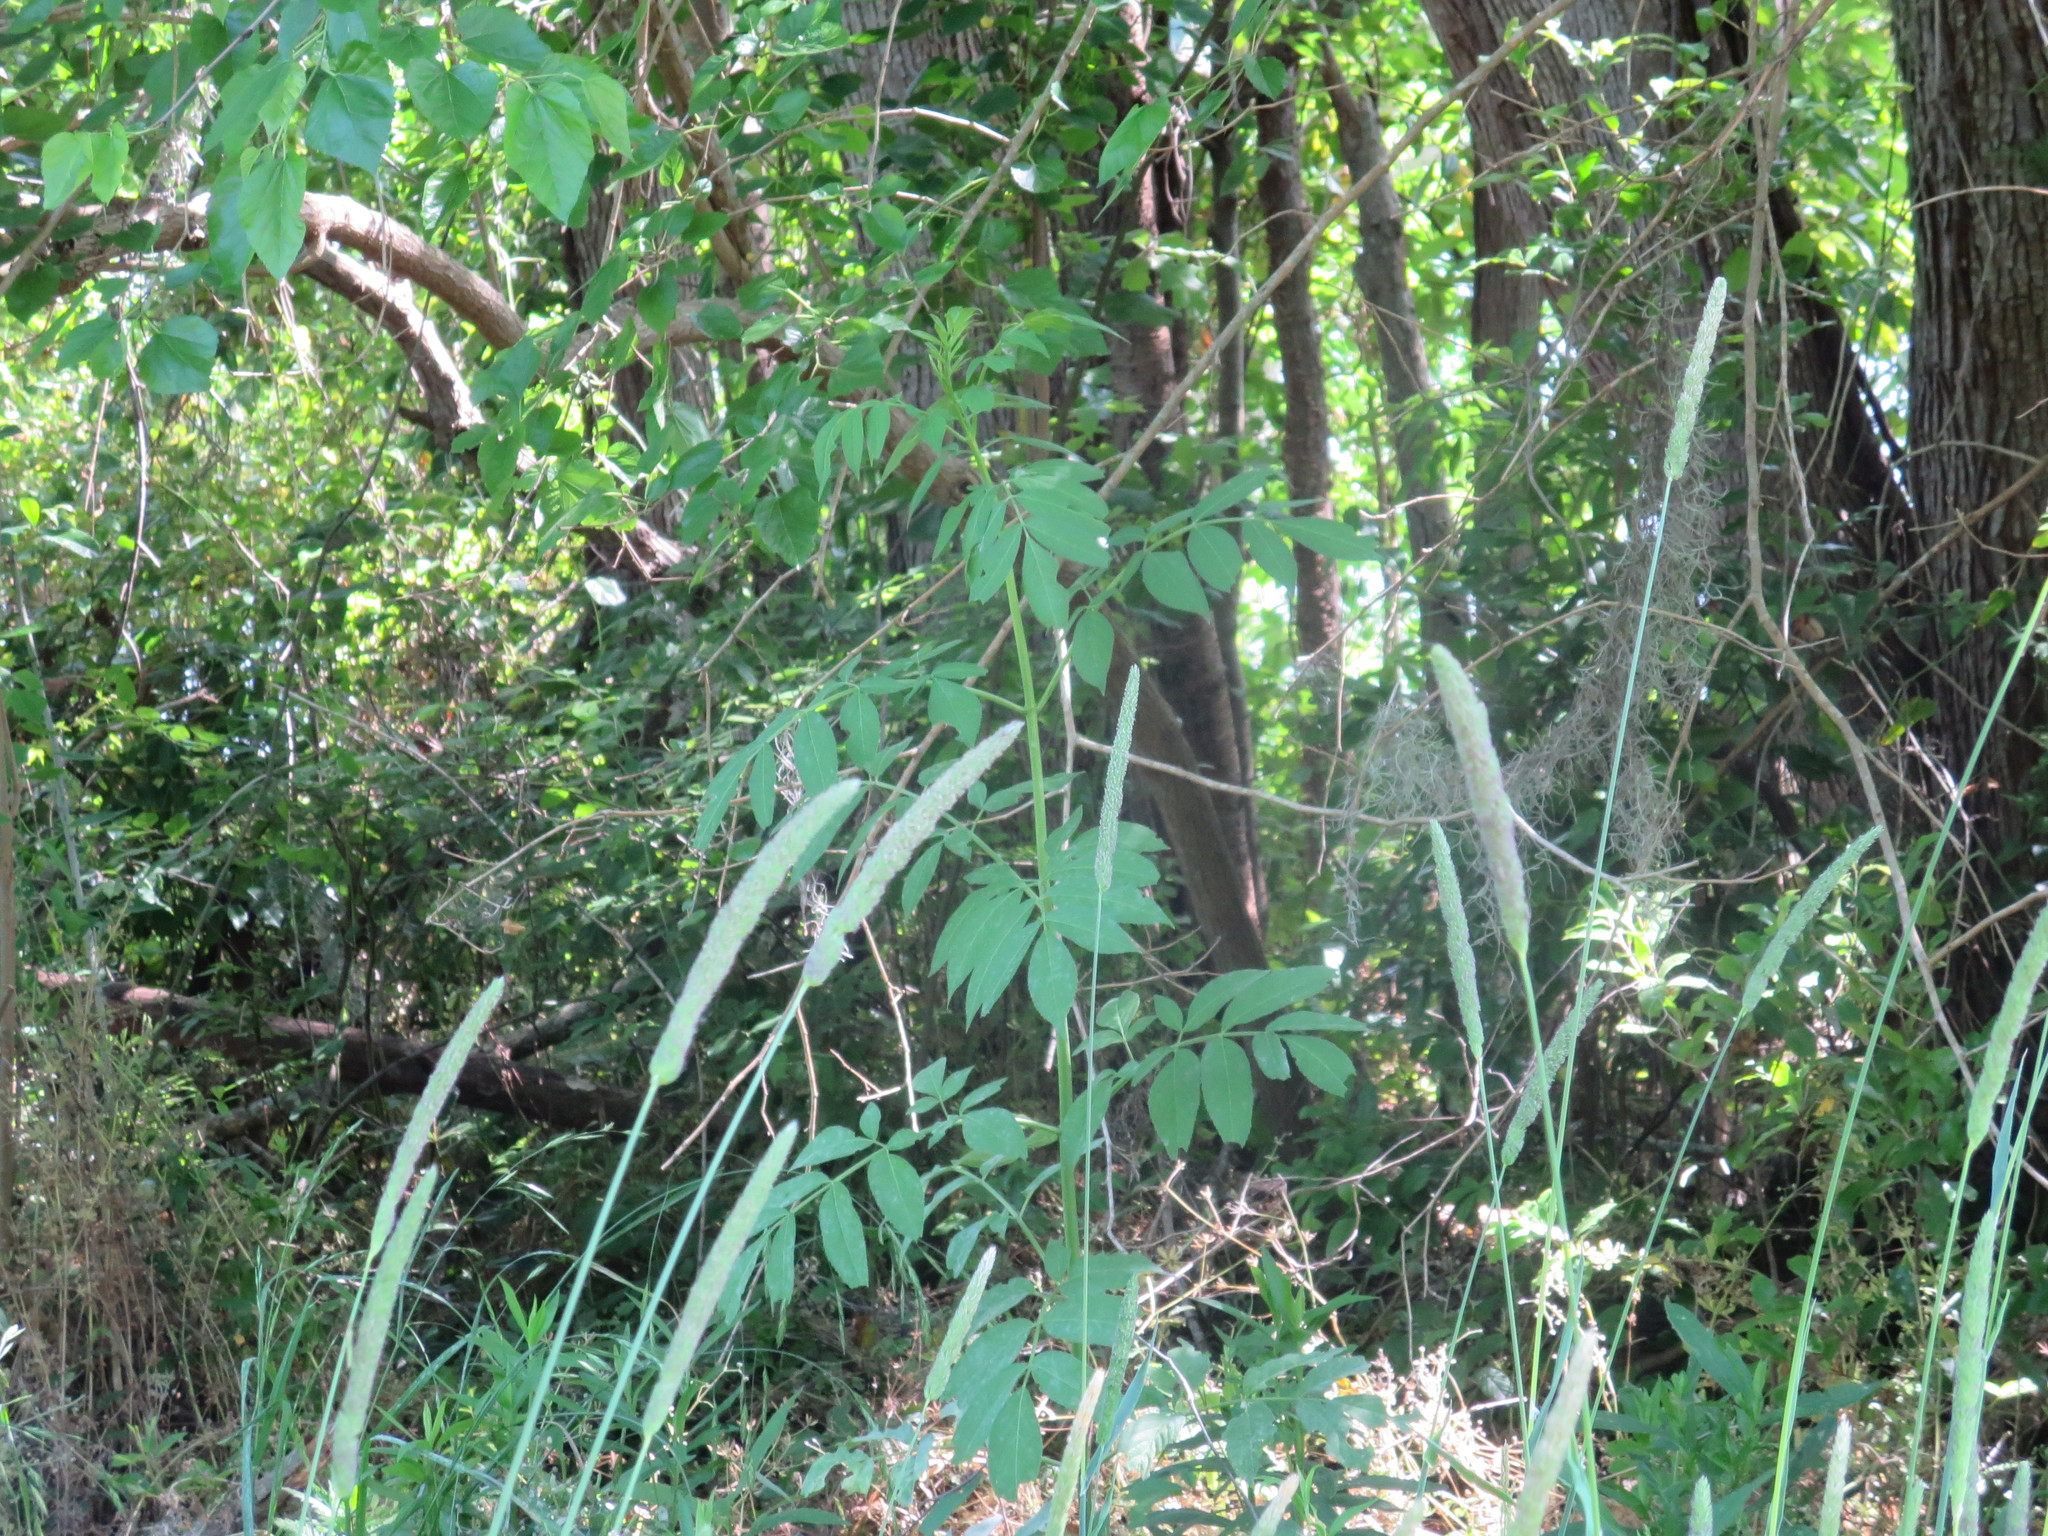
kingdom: Plantae
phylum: Tracheophyta
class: Magnoliopsida
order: Dipsacales
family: Viburnaceae
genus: Sambucus
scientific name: Sambucus canadensis
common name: American elder
